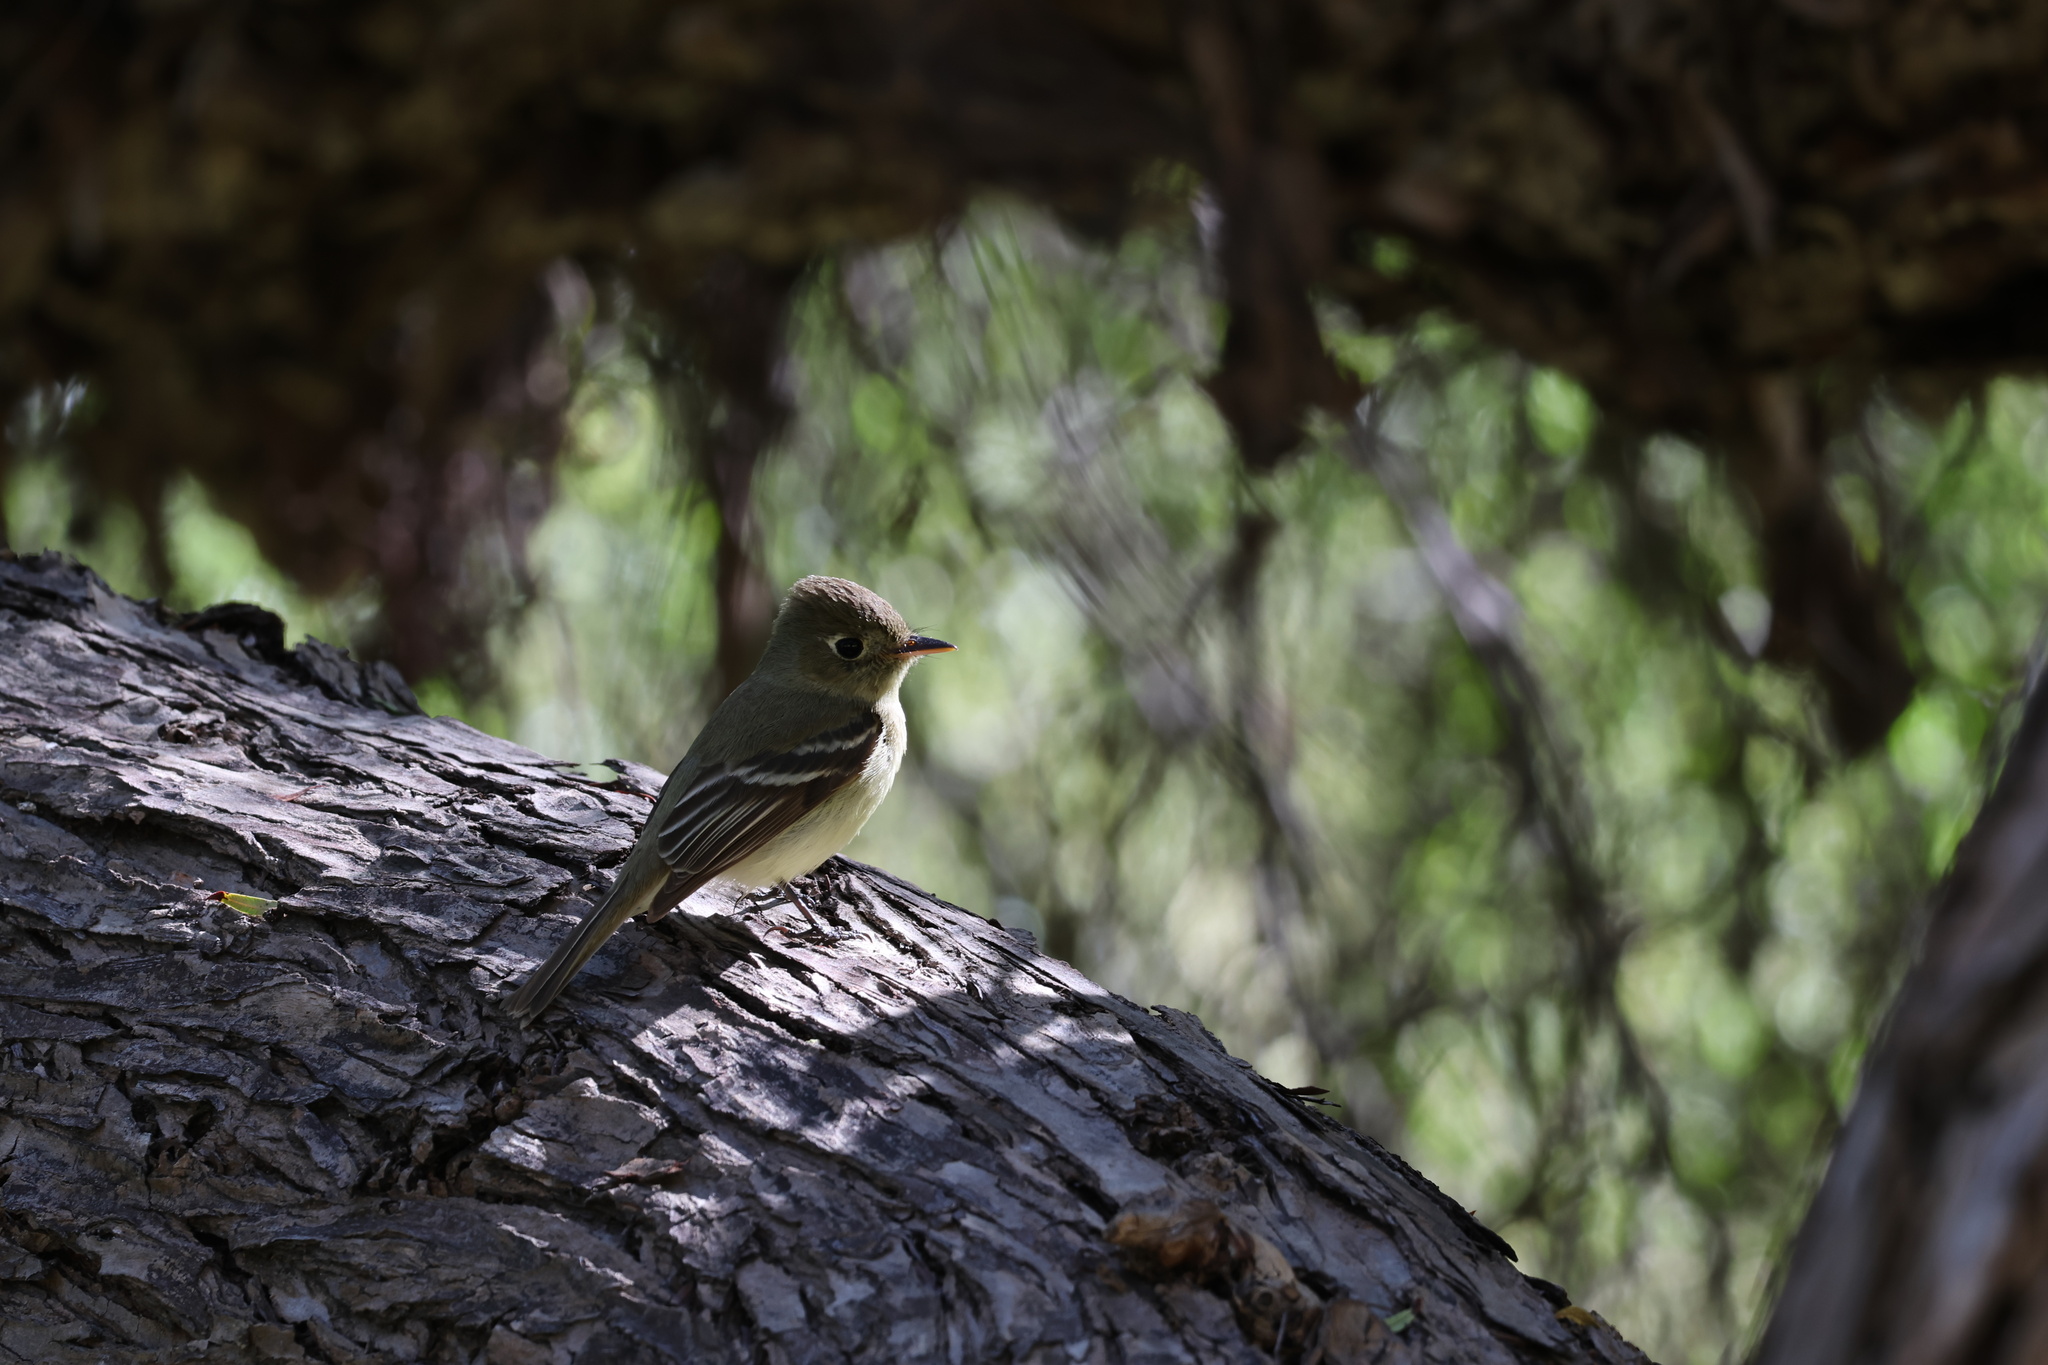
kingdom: Animalia
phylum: Chordata
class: Aves
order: Passeriformes
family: Tyrannidae
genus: Empidonax
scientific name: Empidonax difficilis
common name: Pacific-slope flycatcher
